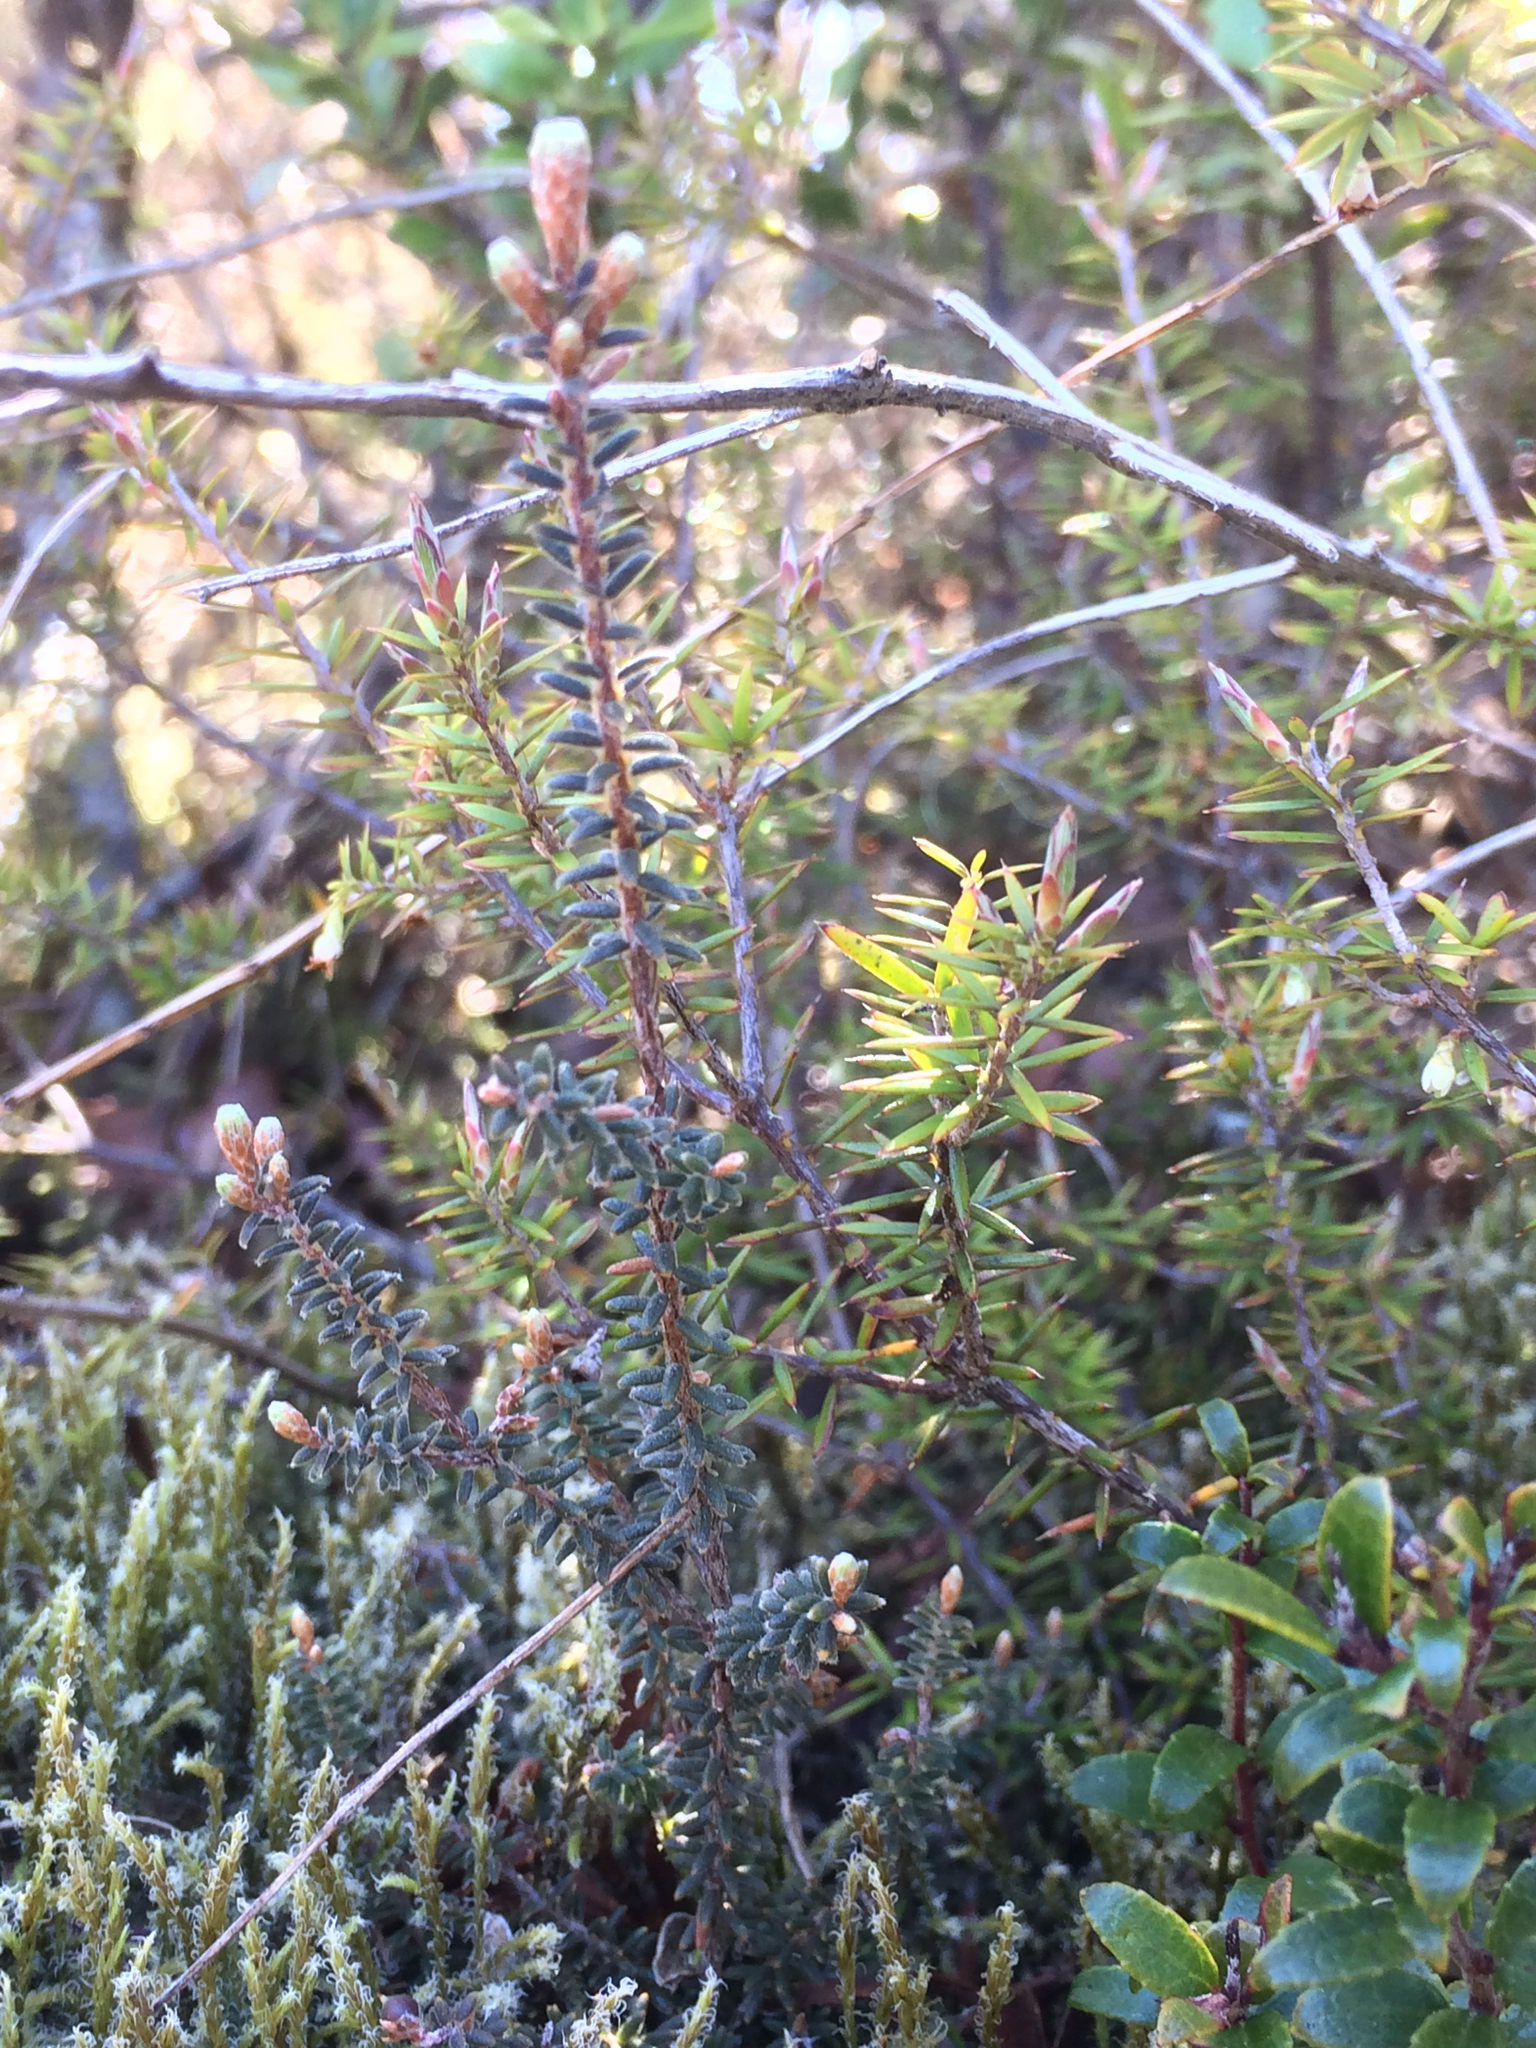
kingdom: Plantae
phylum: Tracheophyta
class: Magnoliopsida
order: Ericales
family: Ericaceae
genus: Androstoma
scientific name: Androstoma empetrifolia
